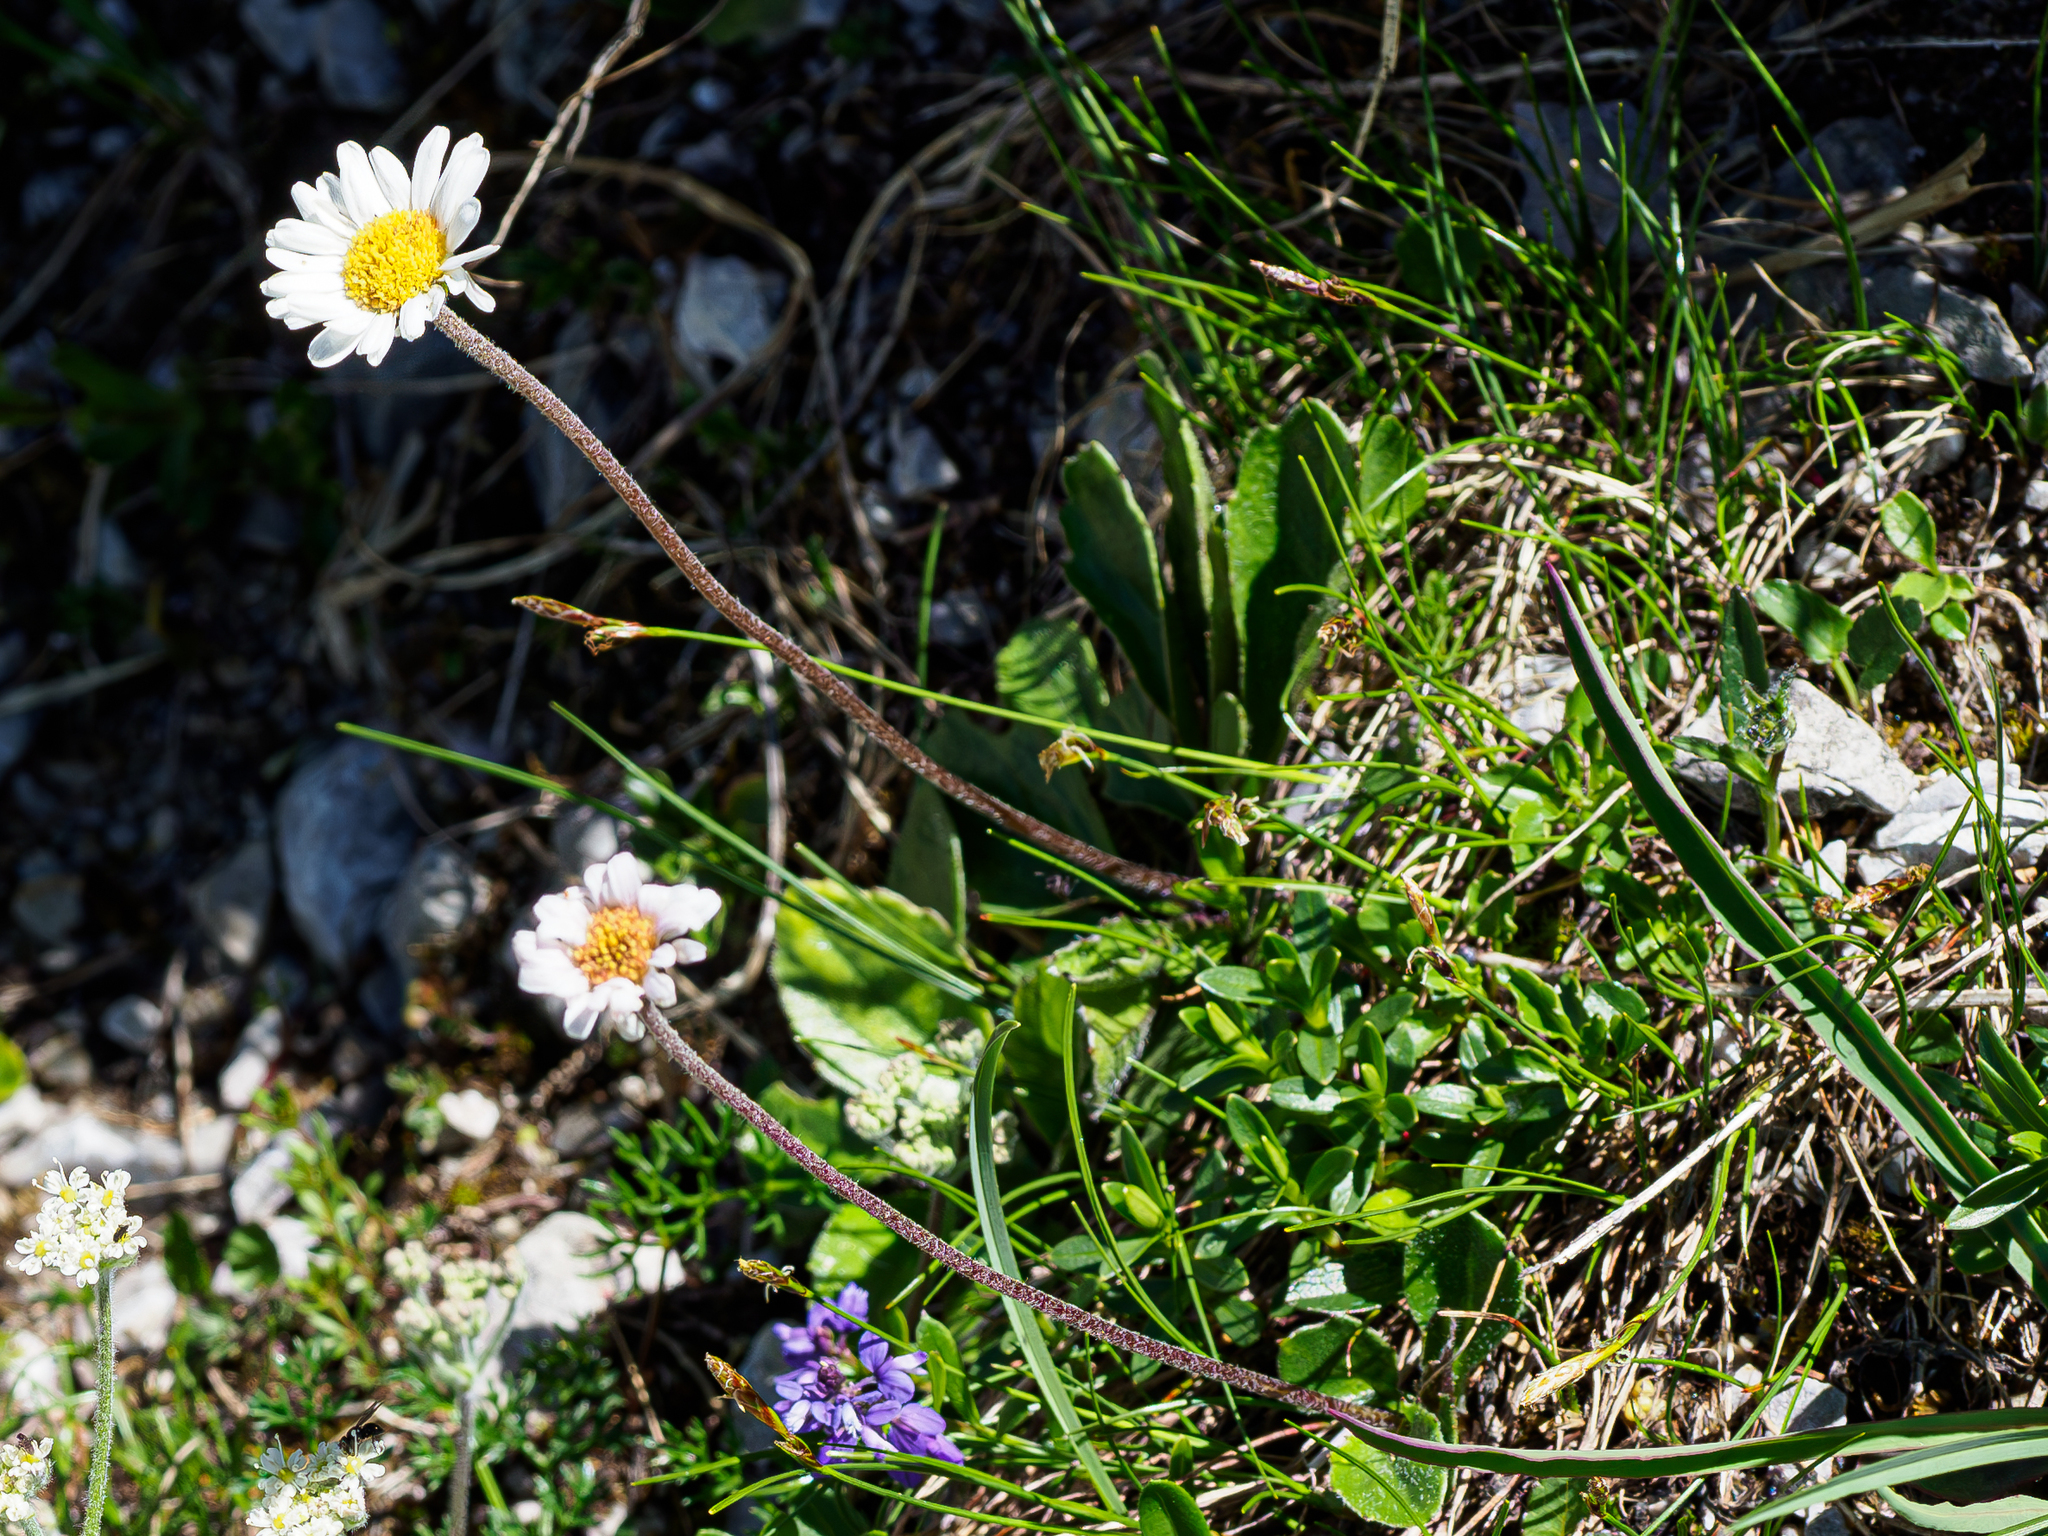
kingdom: Plantae
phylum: Tracheophyta
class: Magnoliopsida
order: Asterales
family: Asteraceae
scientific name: Asteraceae
